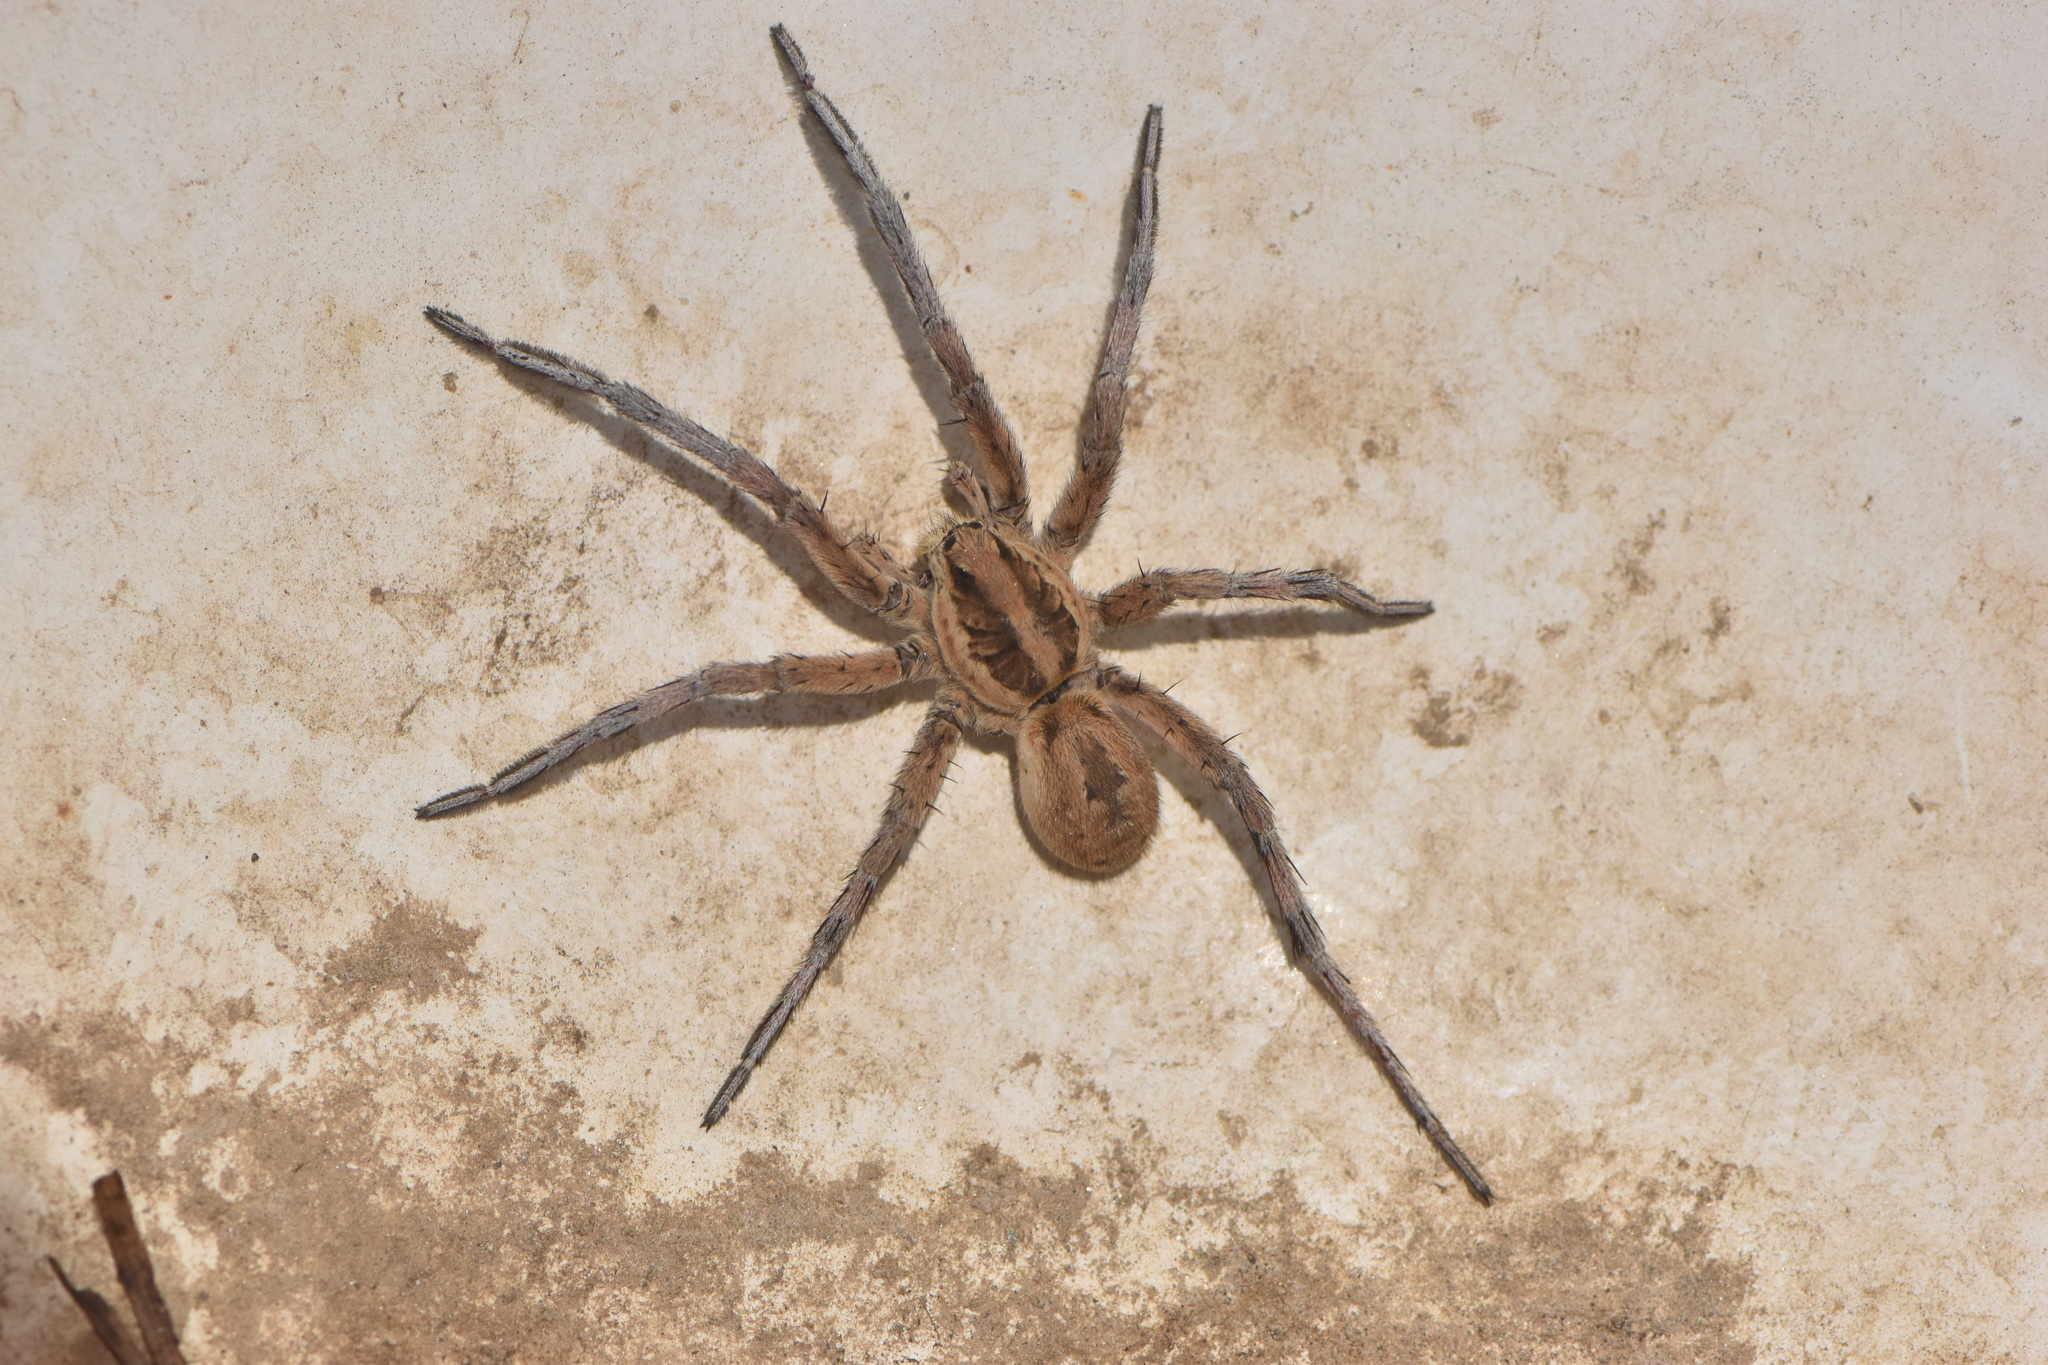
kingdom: Animalia
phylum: Arthropoda
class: Arachnida
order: Araneae
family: Lycosidae
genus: Hogna
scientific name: Hogna radiata
